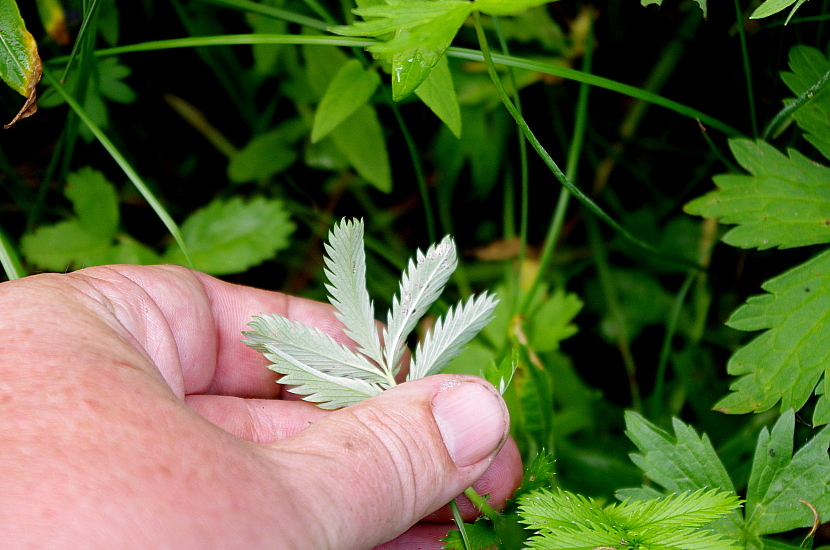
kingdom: Plantae
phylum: Tracheophyta
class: Magnoliopsida
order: Rosales
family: Rosaceae
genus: Argentina
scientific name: Argentina anserina
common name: Common silverweed
